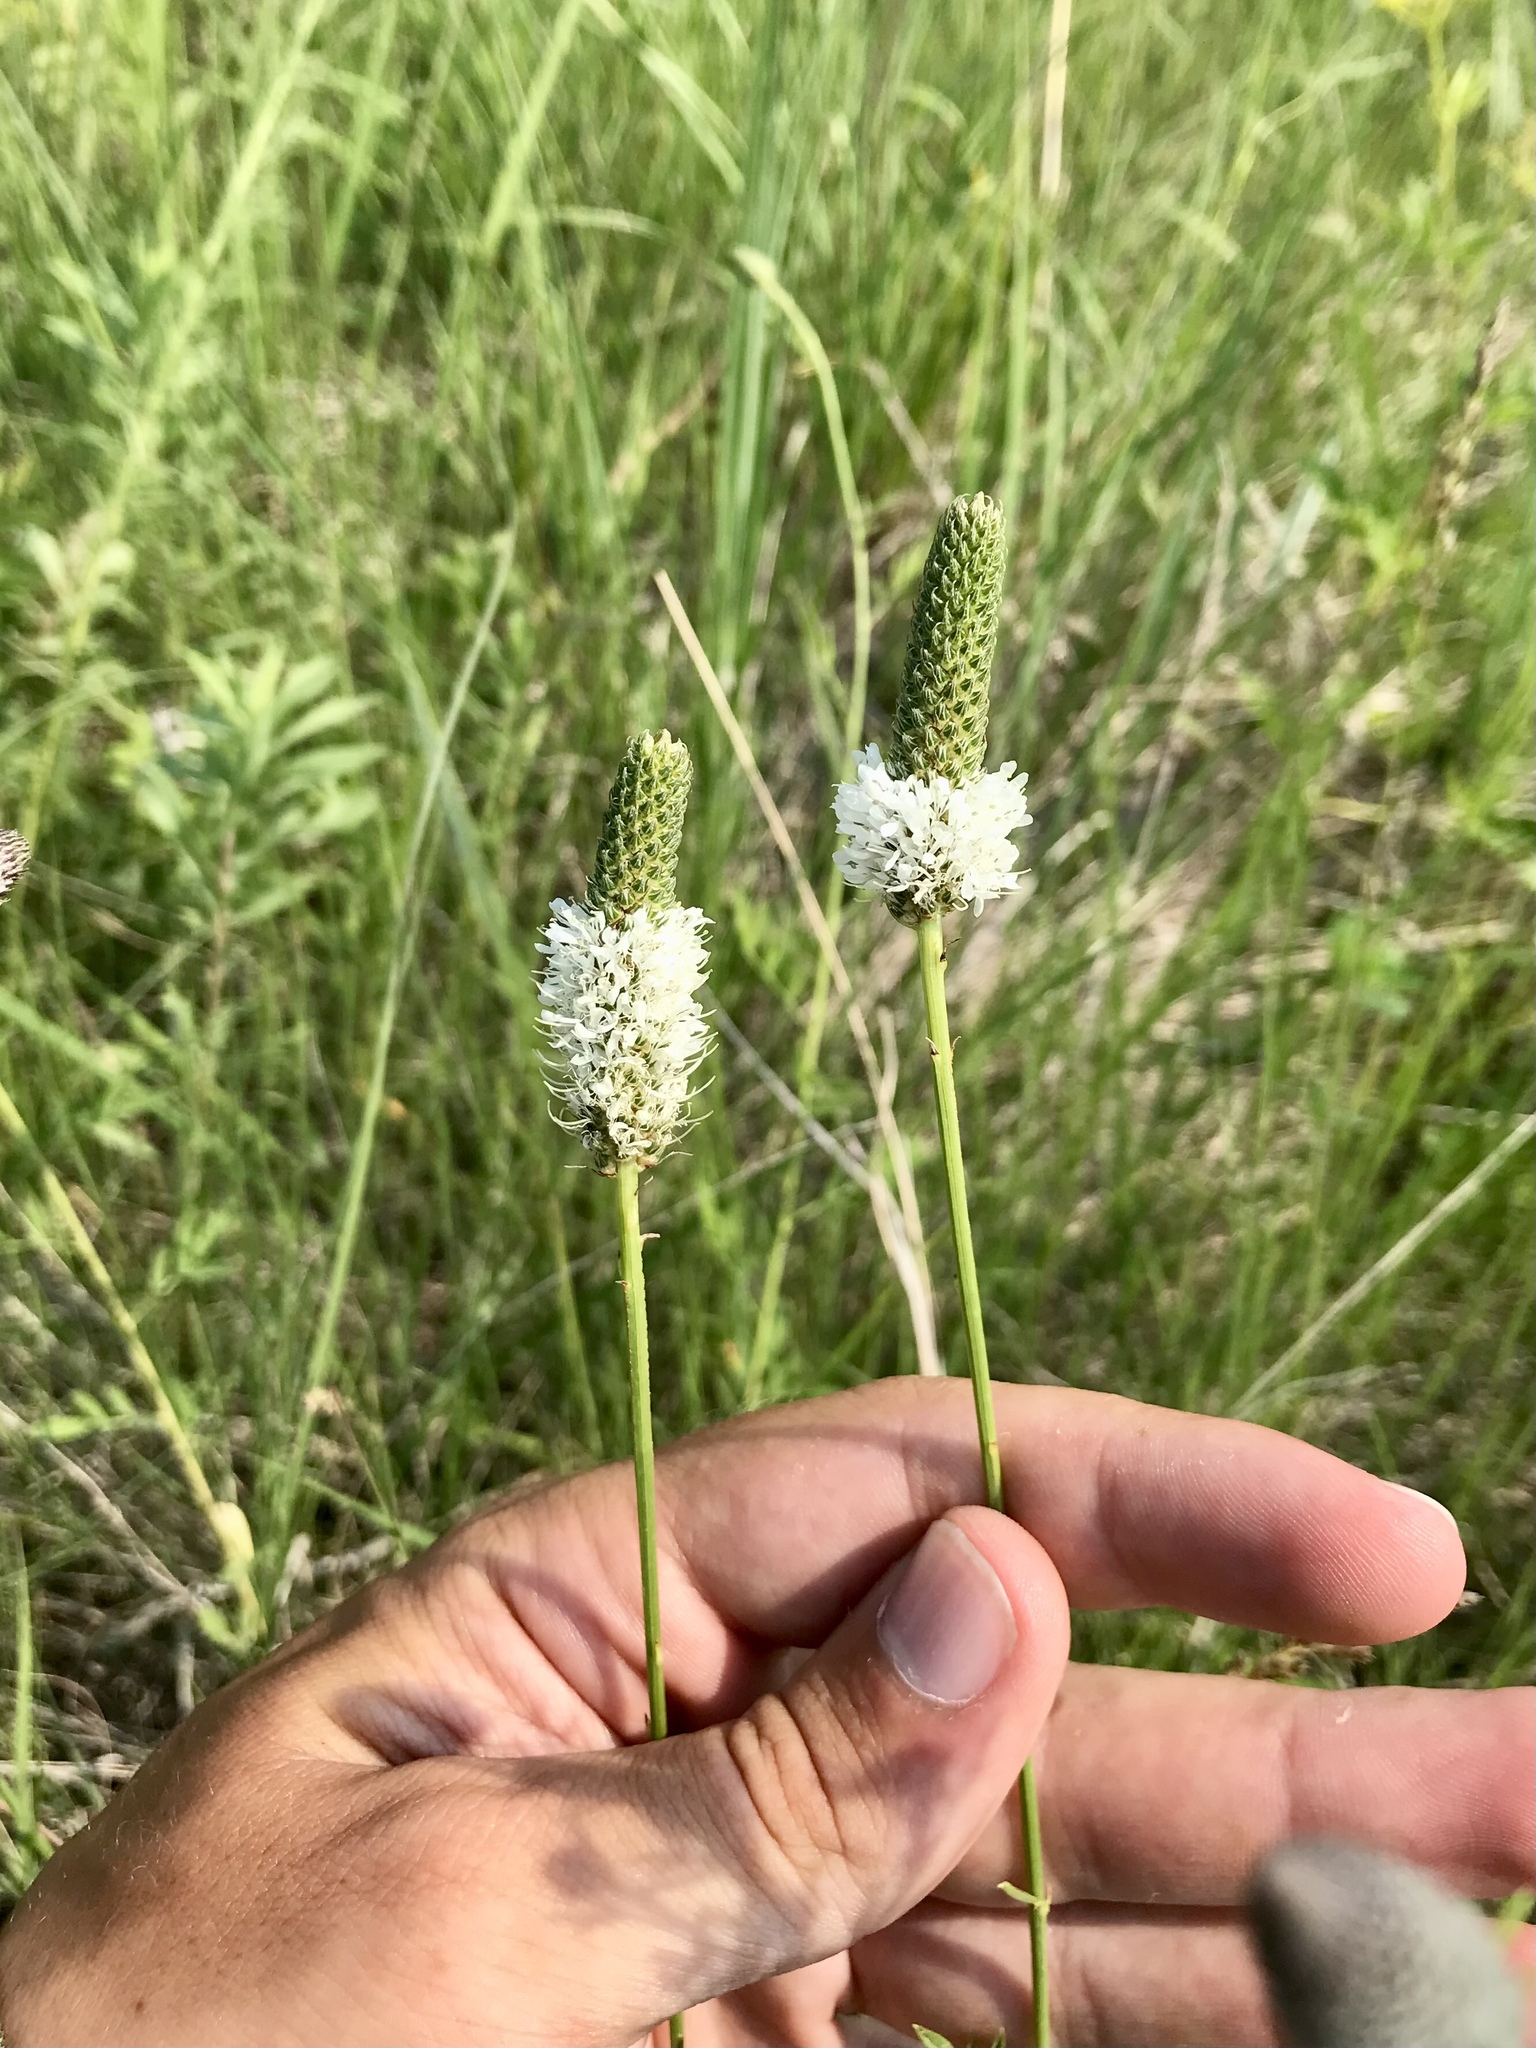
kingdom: Plantae
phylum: Tracheophyta
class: Magnoliopsida
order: Fabales
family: Fabaceae
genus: Dalea
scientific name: Dalea candida
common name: White prairie-clover
